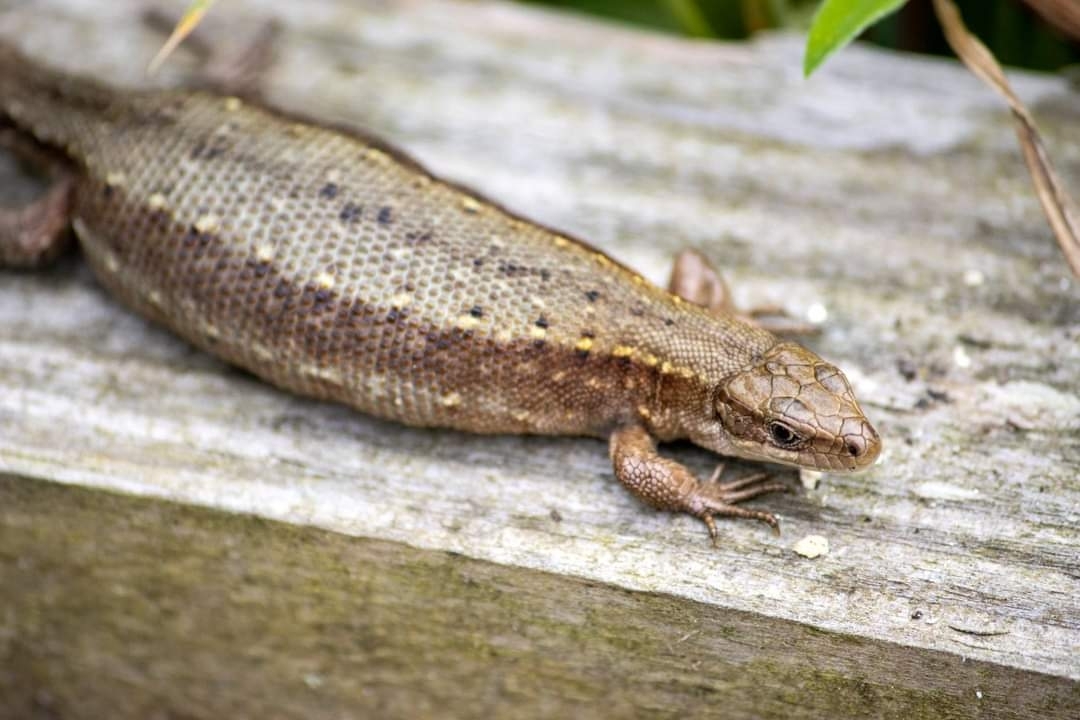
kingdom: Animalia
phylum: Chordata
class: Squamata
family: Lacertidae
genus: Zootoca
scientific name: Zootoca vivipara
